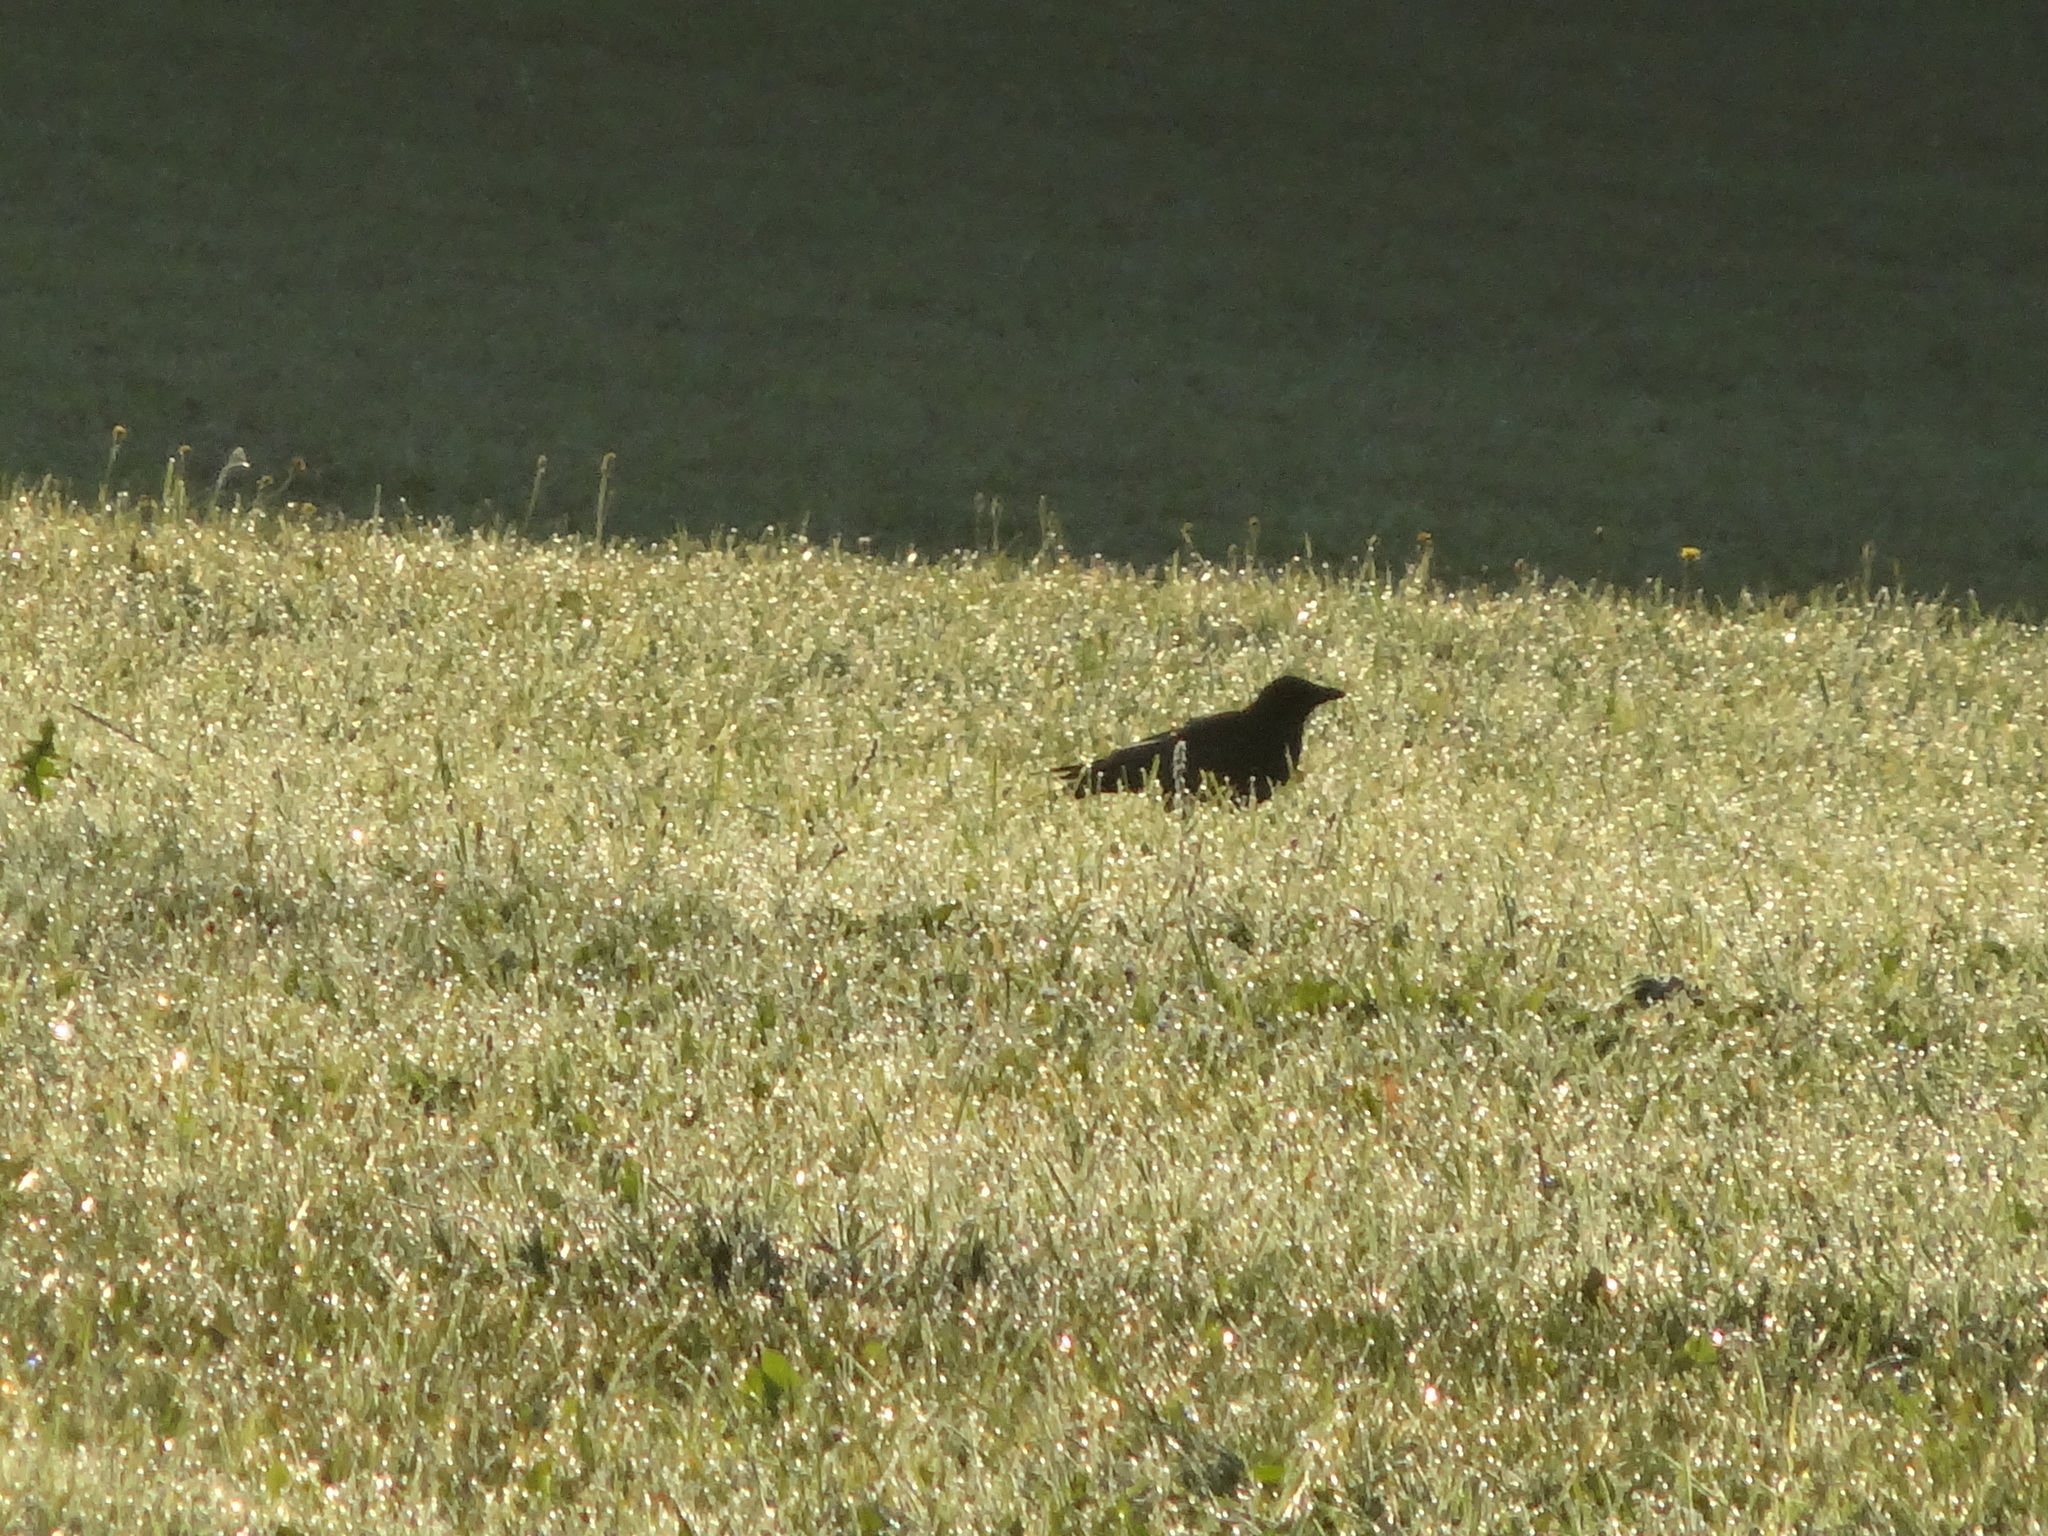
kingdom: Animalia
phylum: Chordata
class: Aves
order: Passeriformes
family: Corvidae
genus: Corvus
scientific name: Corvus corone
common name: Carrion crow
